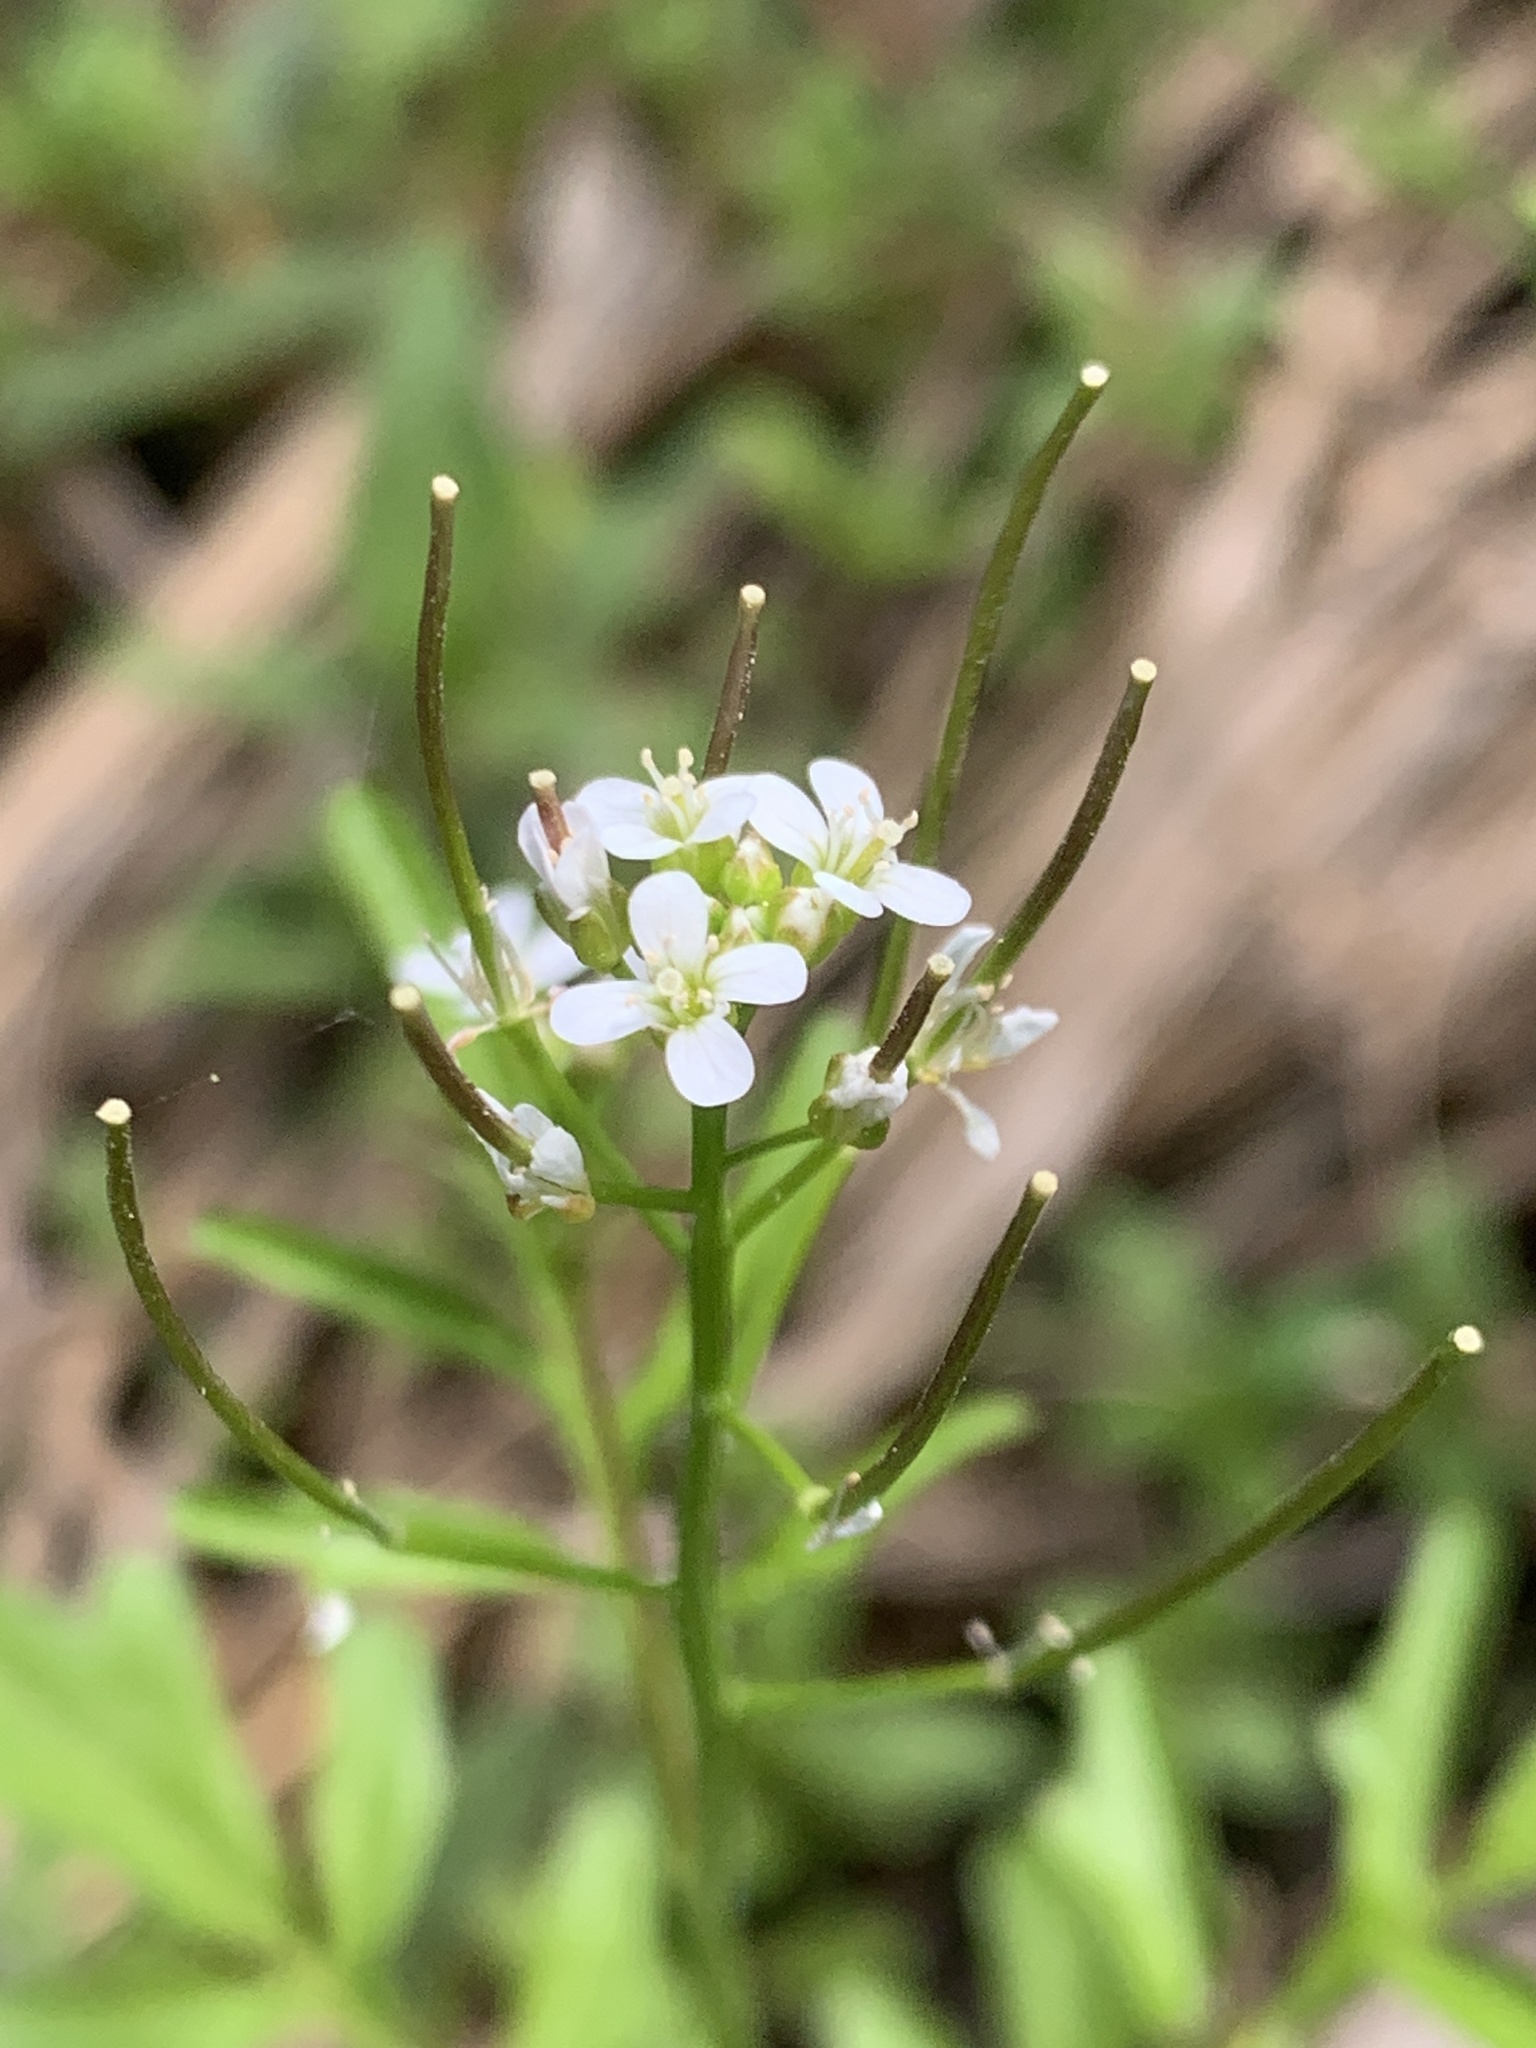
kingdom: Plantae
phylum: Tracheophyta
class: Magnoliopsida
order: Brassicales
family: Brassicaceae
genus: Cardamine
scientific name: Cardamine pensylvanica
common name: Pennsylvania bittercress
